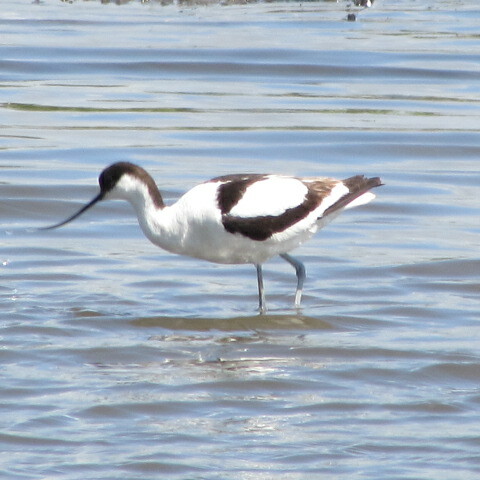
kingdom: Animalia
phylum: Chordata
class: Aves
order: Charadriiformes
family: Recurvirostridae
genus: Recurvirostra
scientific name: Recurvirostra avosetta
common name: Pied avocet
